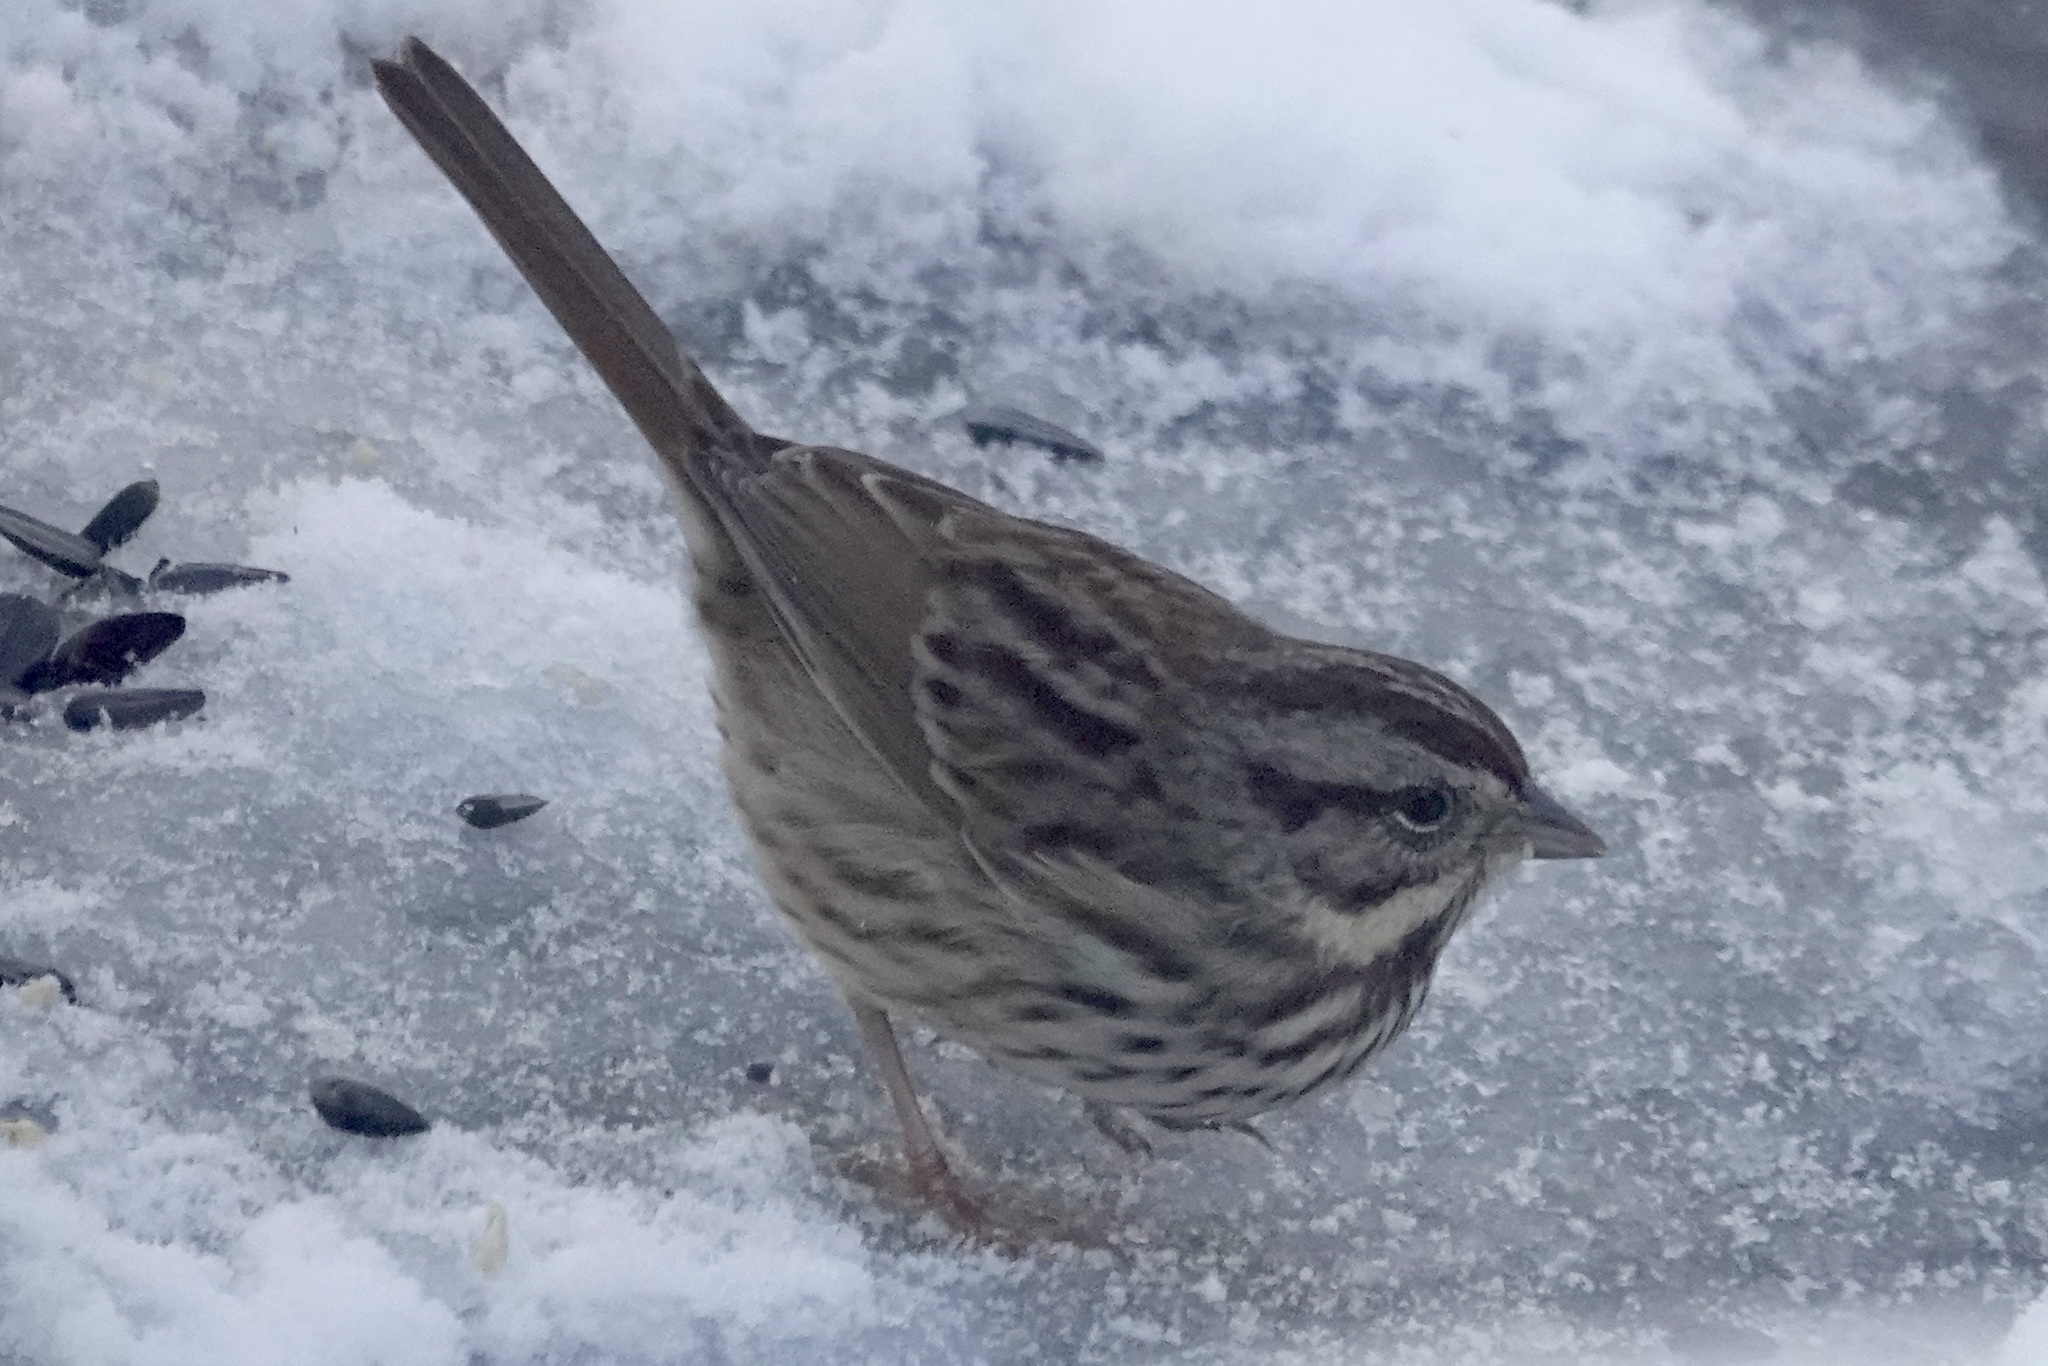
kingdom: Animalia
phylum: Chordata
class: Aves
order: Passeriformes
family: Passerellidae
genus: Melospiza
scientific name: Melospiza melodia
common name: Song sparrow
